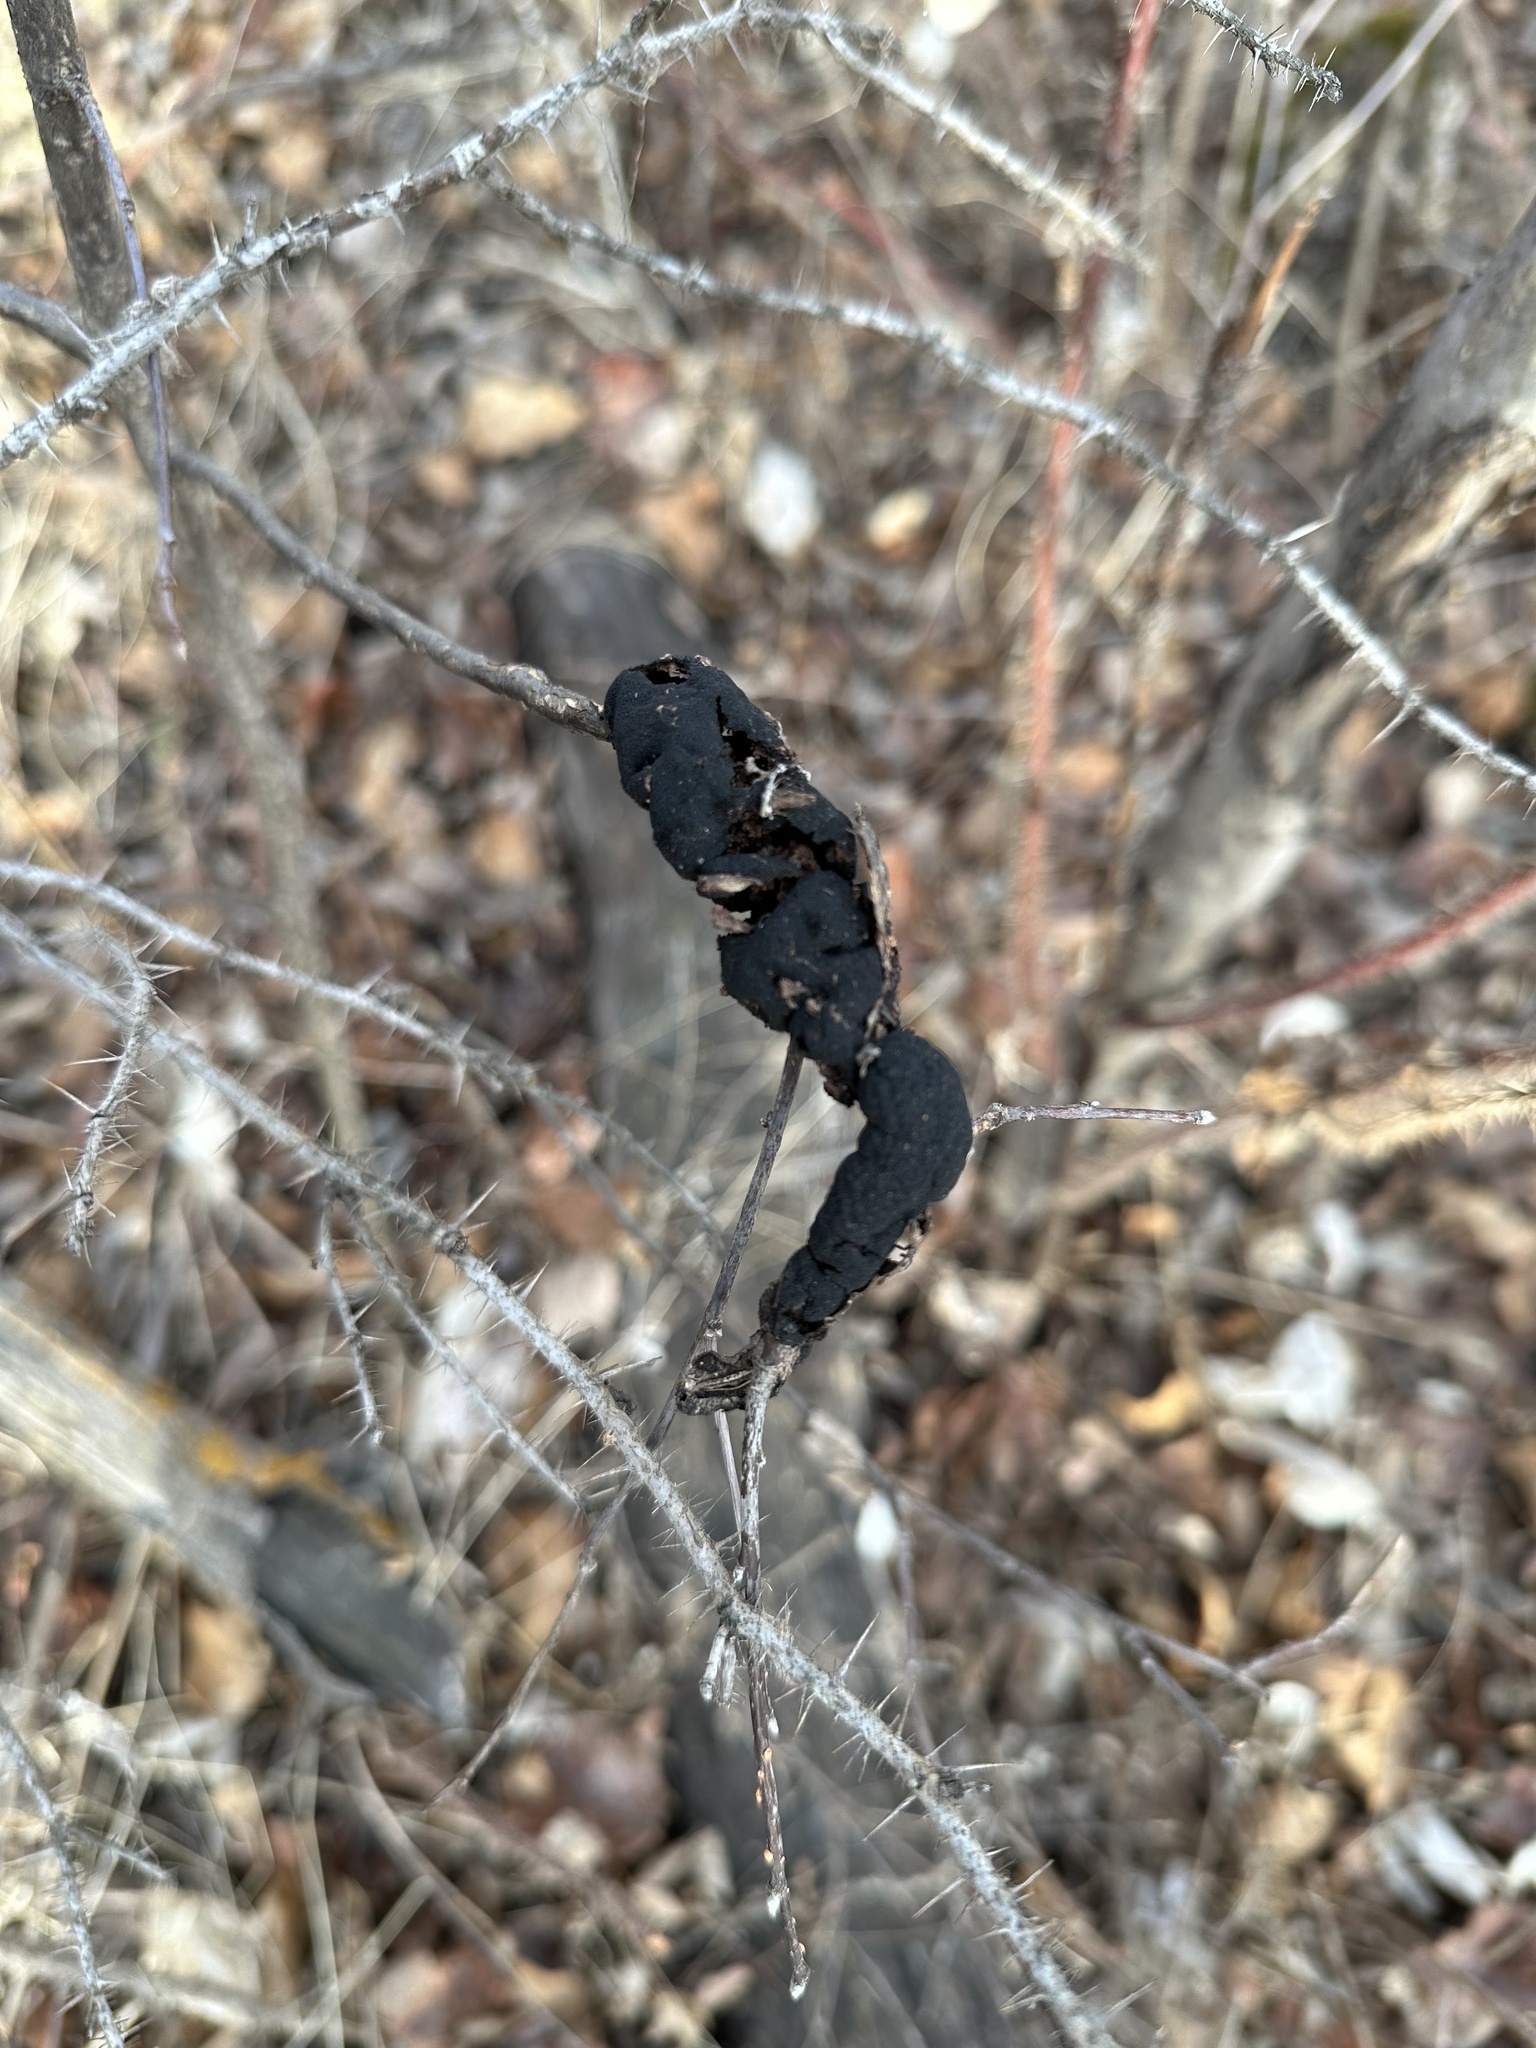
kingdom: Fungi
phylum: Ascomycota
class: Dothideomycetes
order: Venturiales
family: Venturiaceae
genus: Apiosporina
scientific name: Apiosporina morbosa
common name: Black knot
